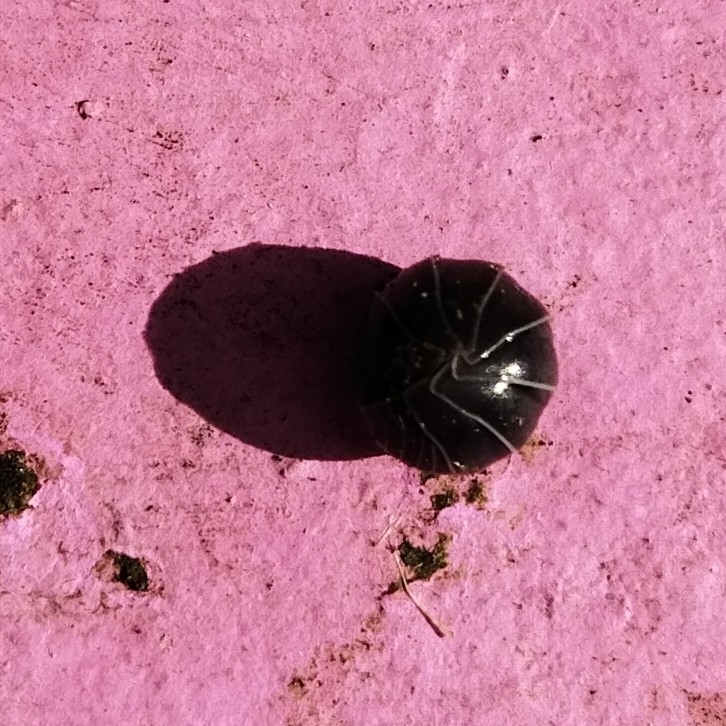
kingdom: Animalia
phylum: Arthropoda
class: Malacostraca
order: Isopoda
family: Armadillidiidae
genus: Armadillidium
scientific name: Armadillidium vulgare
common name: Common pill woodlouse
